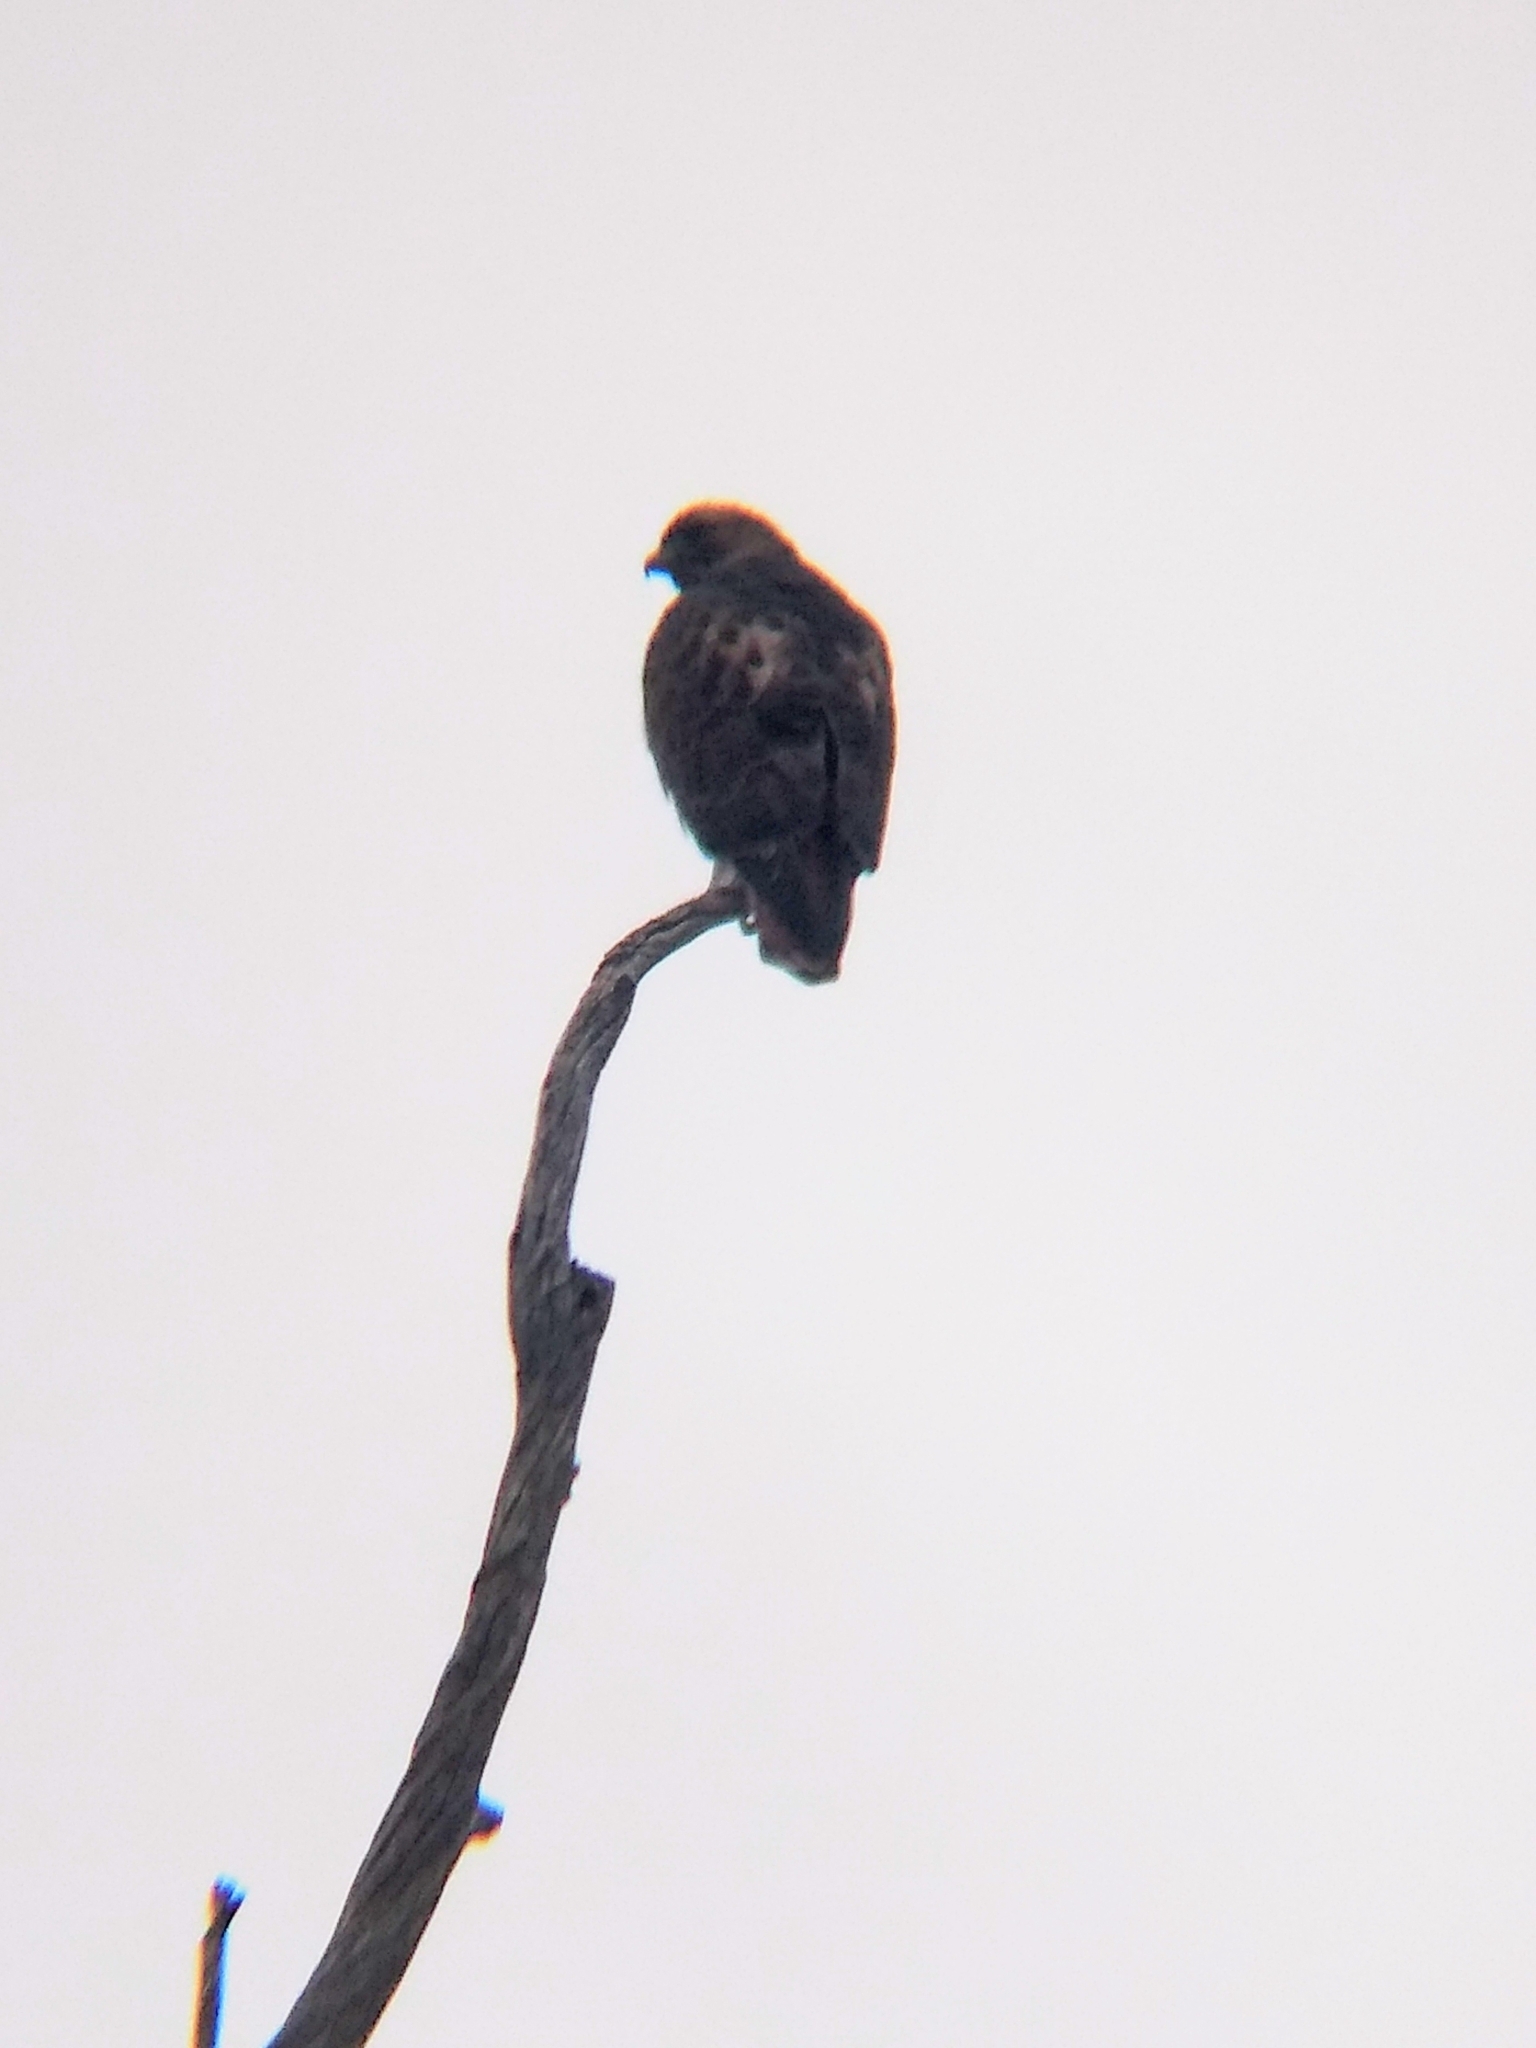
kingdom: Animalia
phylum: Chordata
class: Aves
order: Accipitriformes
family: Accipitridae
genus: Buteo
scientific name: Buteo jamaicensis
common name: Red-tailed hawk
